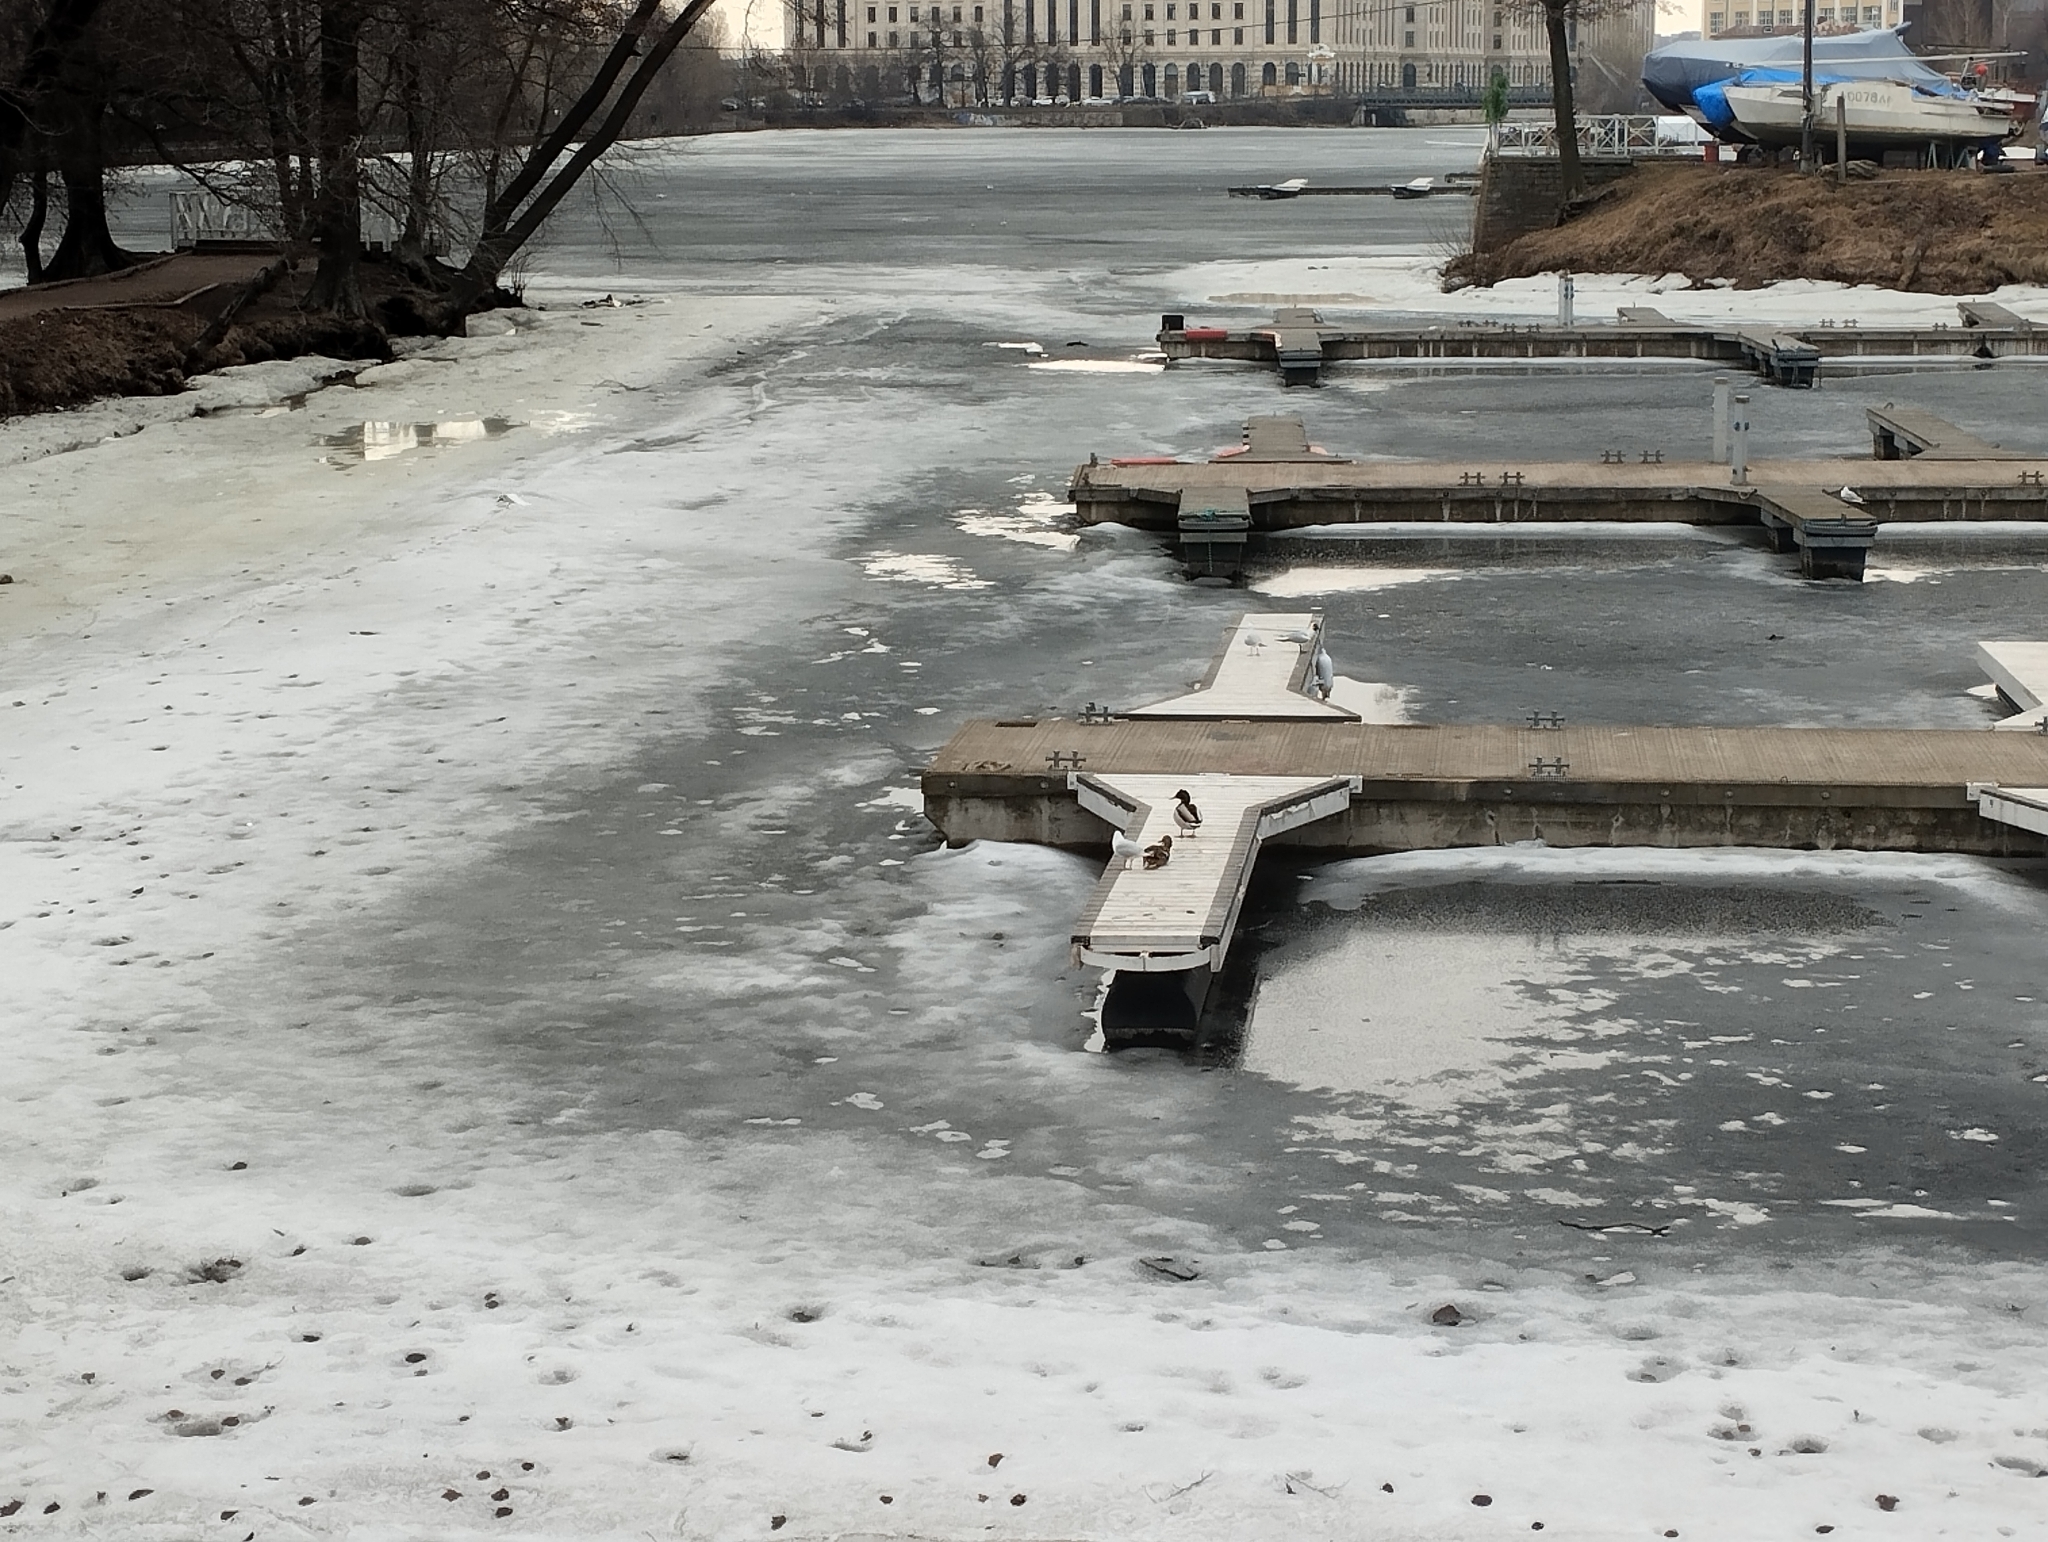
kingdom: Animalia
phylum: Chordata
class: Aves
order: Anseriformes
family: Anatidae
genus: Anas
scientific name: Anas platyrhynchos
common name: Mallard
